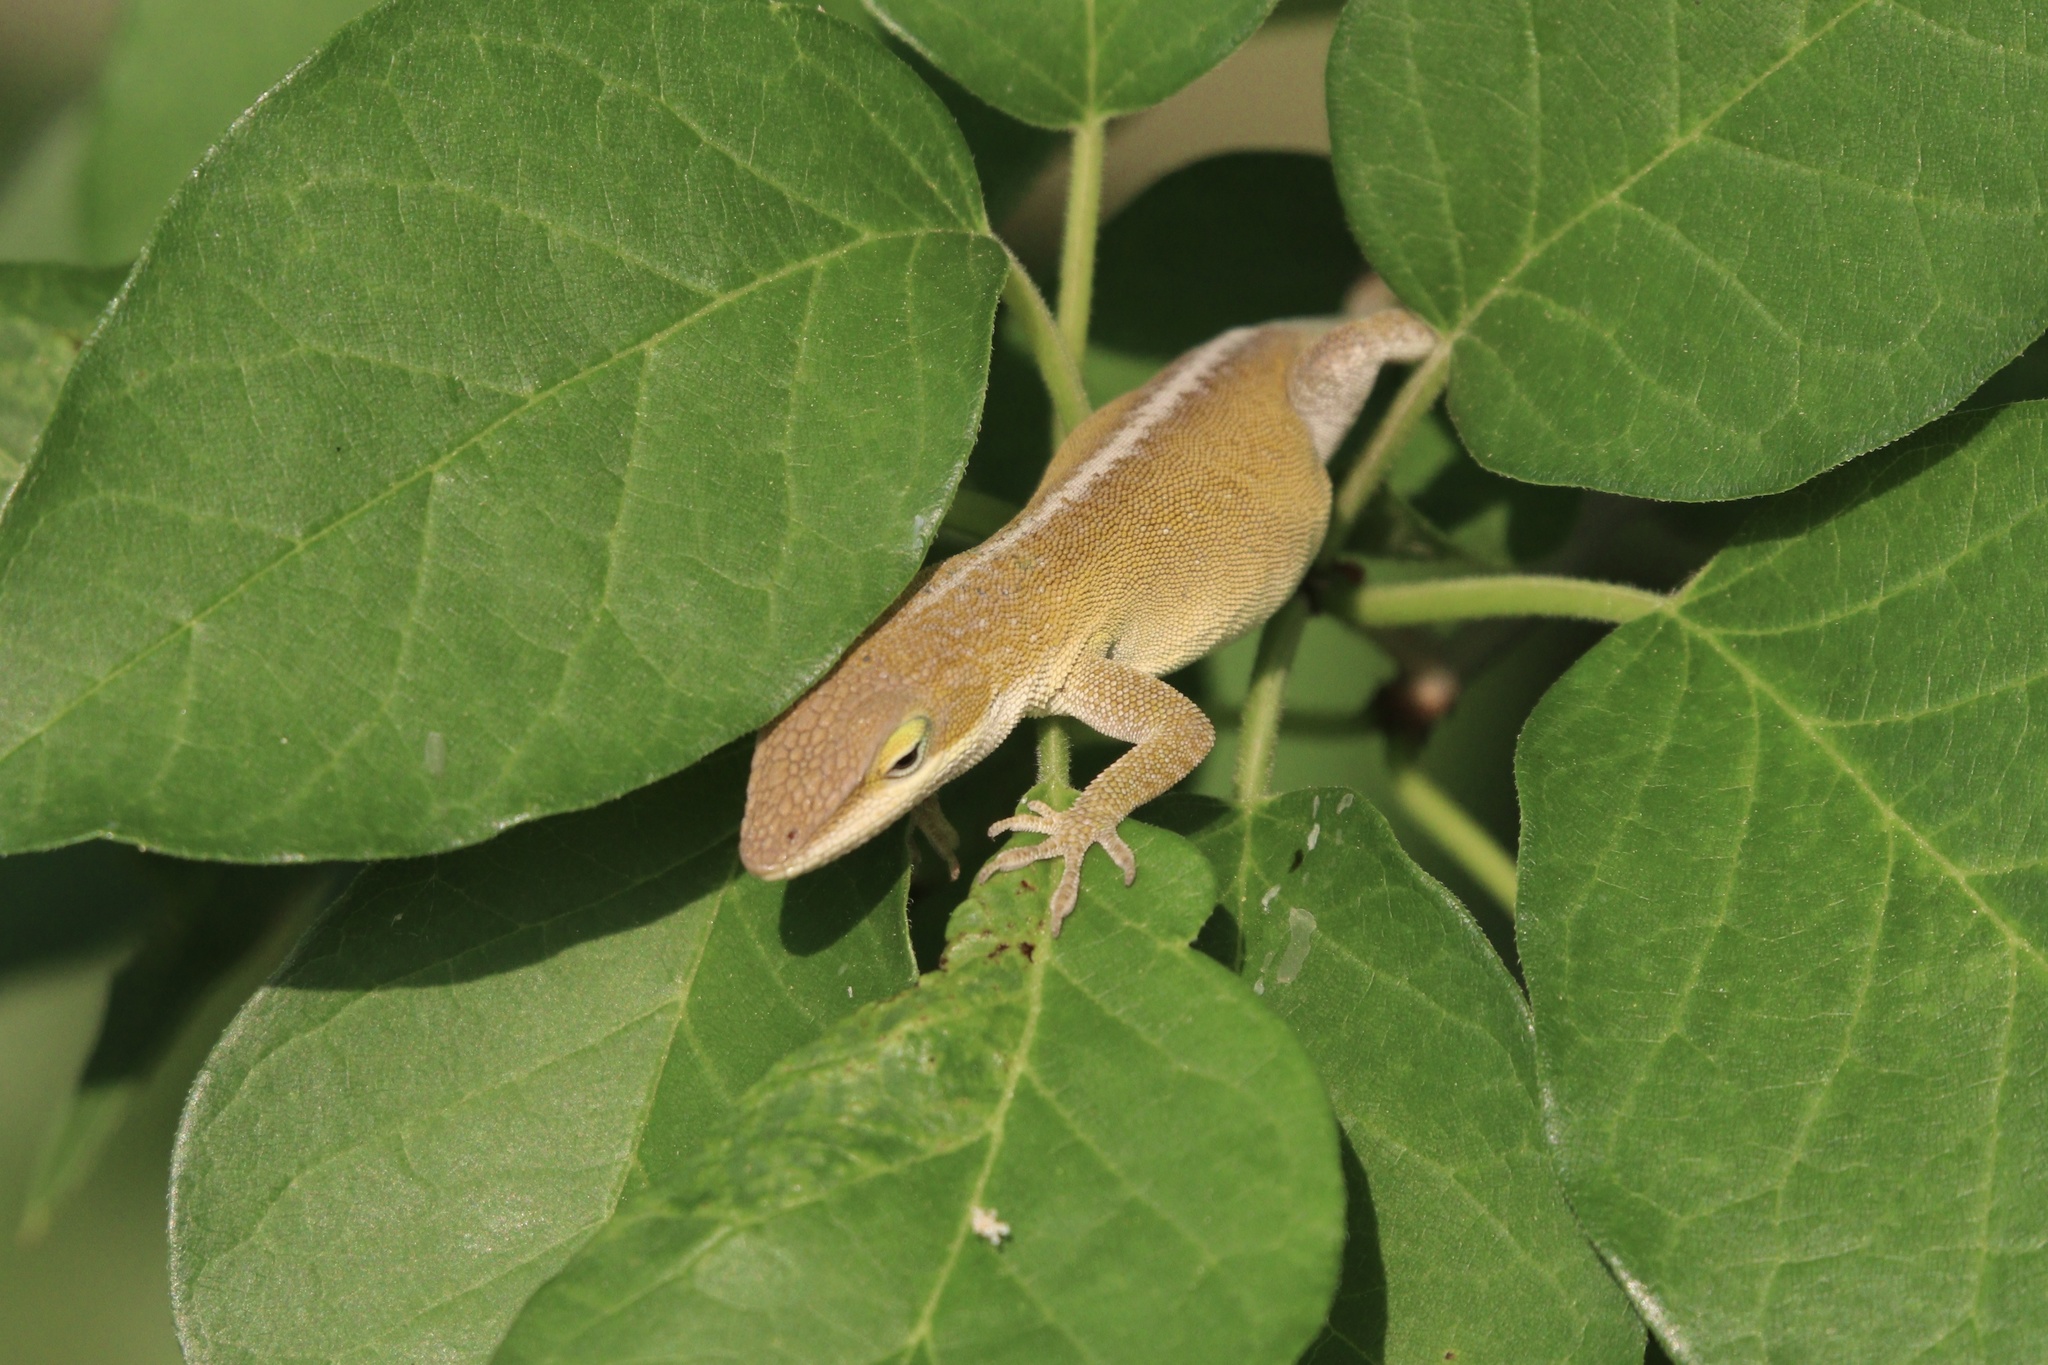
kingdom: Animalia
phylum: Chordata
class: Squamata
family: Dactyloidae
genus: Anolis
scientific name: Anolis carolinensis
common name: Green anole
